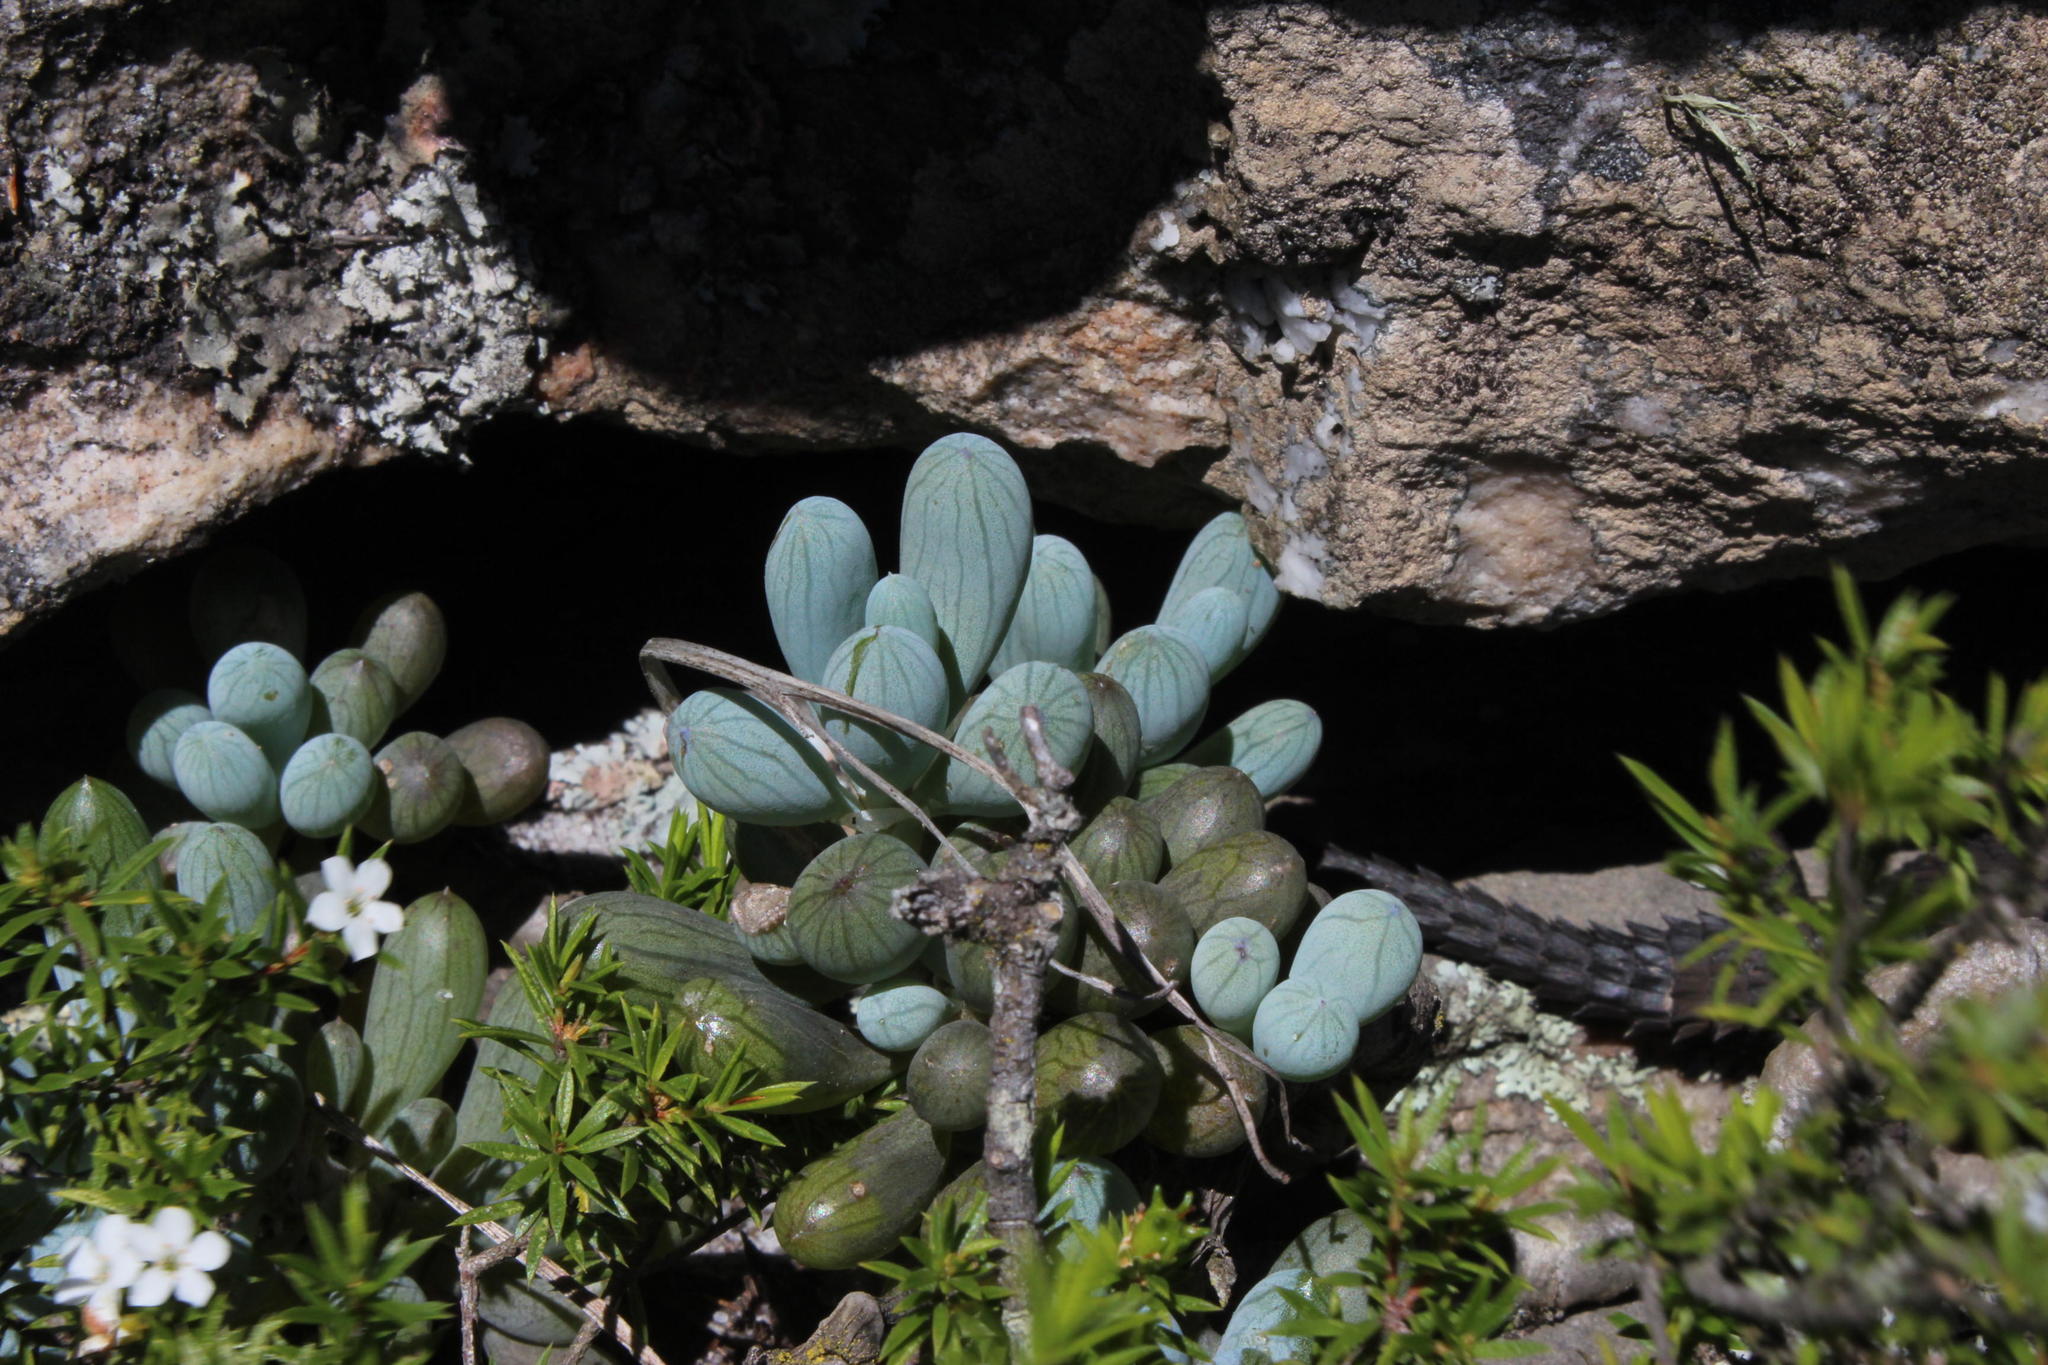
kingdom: Plantae
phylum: Tracheophyta
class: Magnoliopsida
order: Asterales
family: Asteraceae
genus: Curio
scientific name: Curio crassulifolius
